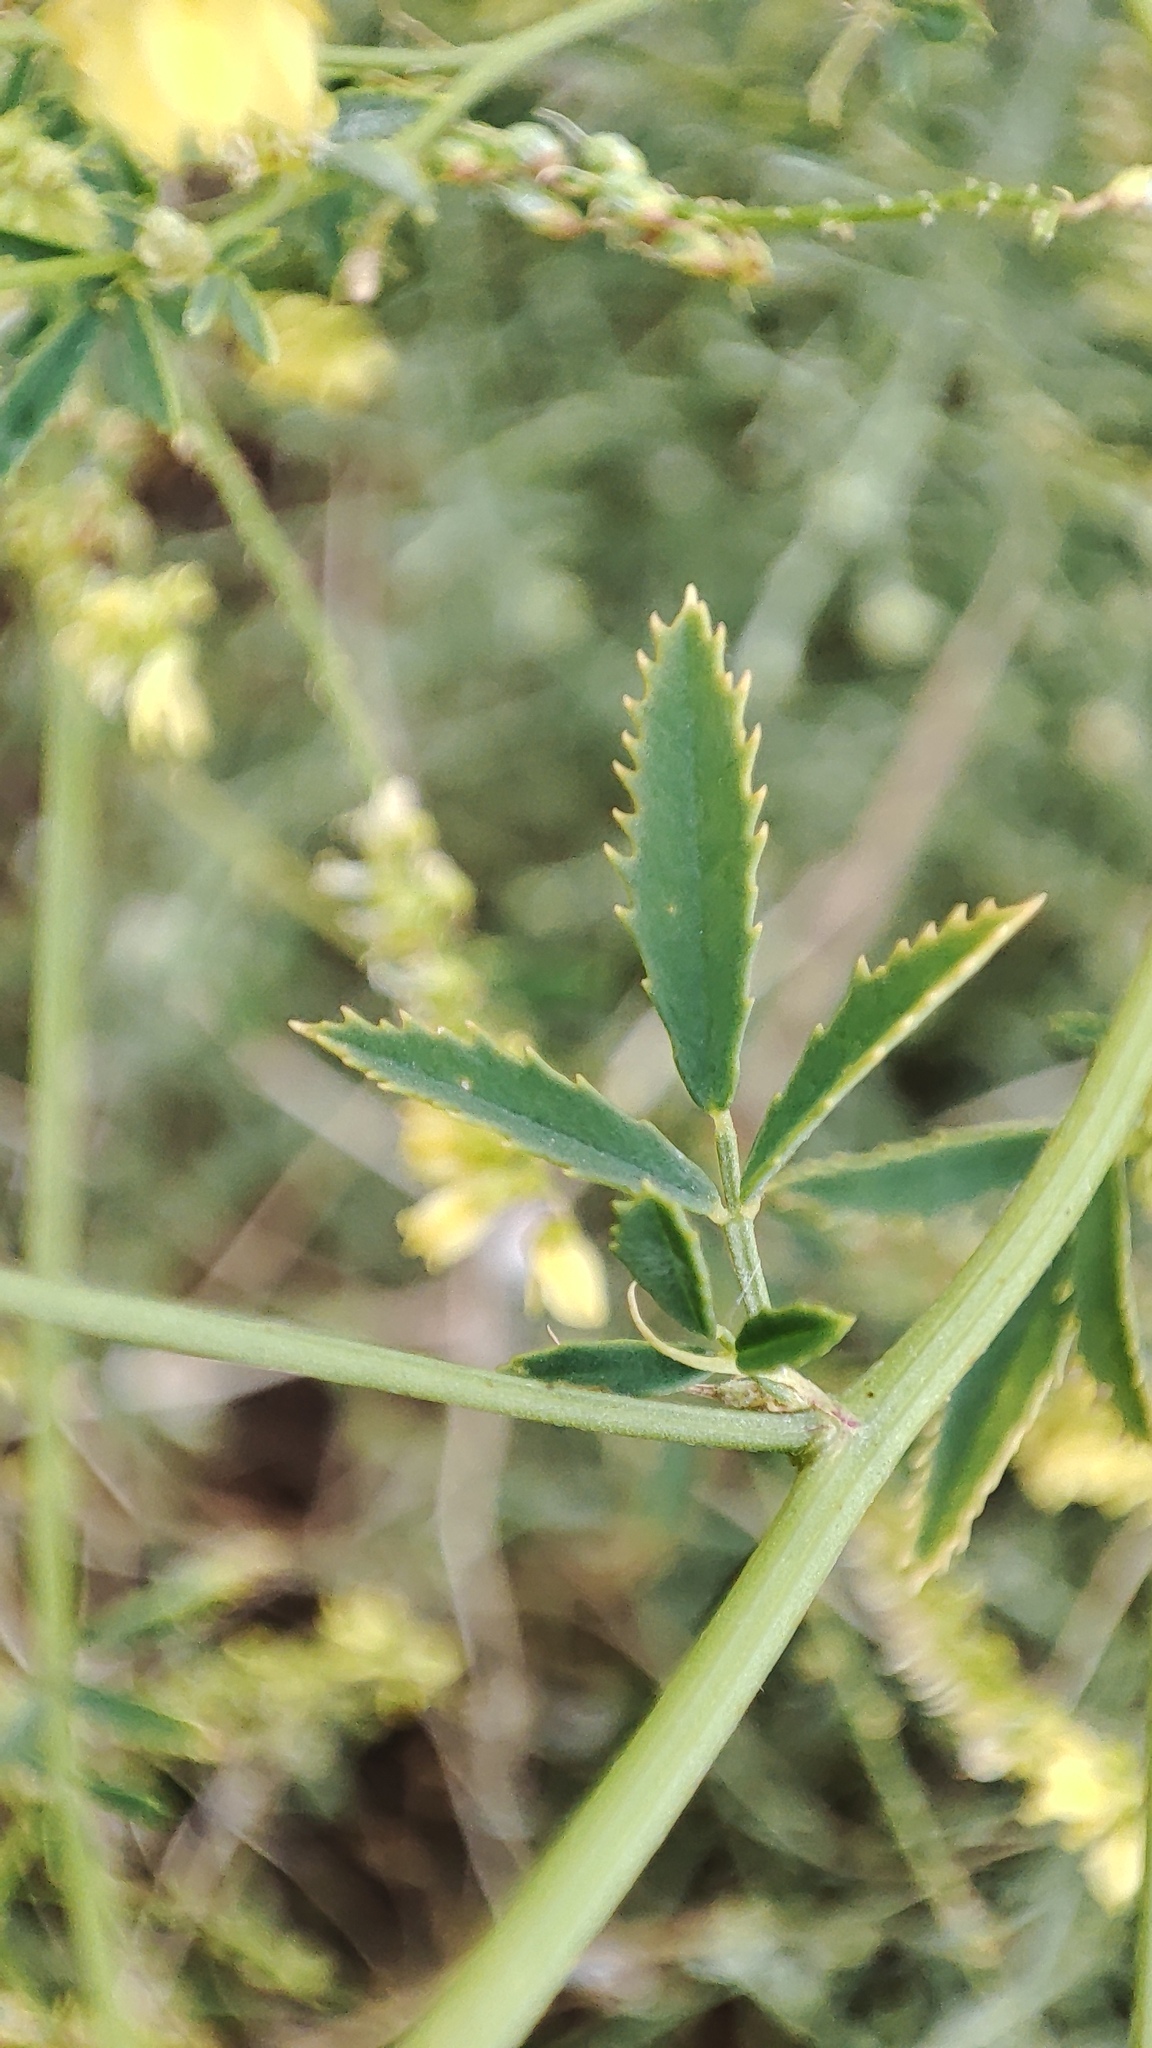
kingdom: Plantae
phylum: Tracheophyta
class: Magnoliopsida
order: Fabales
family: Fabaceae
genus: Melilotus
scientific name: Melilotus officinalis
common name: Sweetclover
